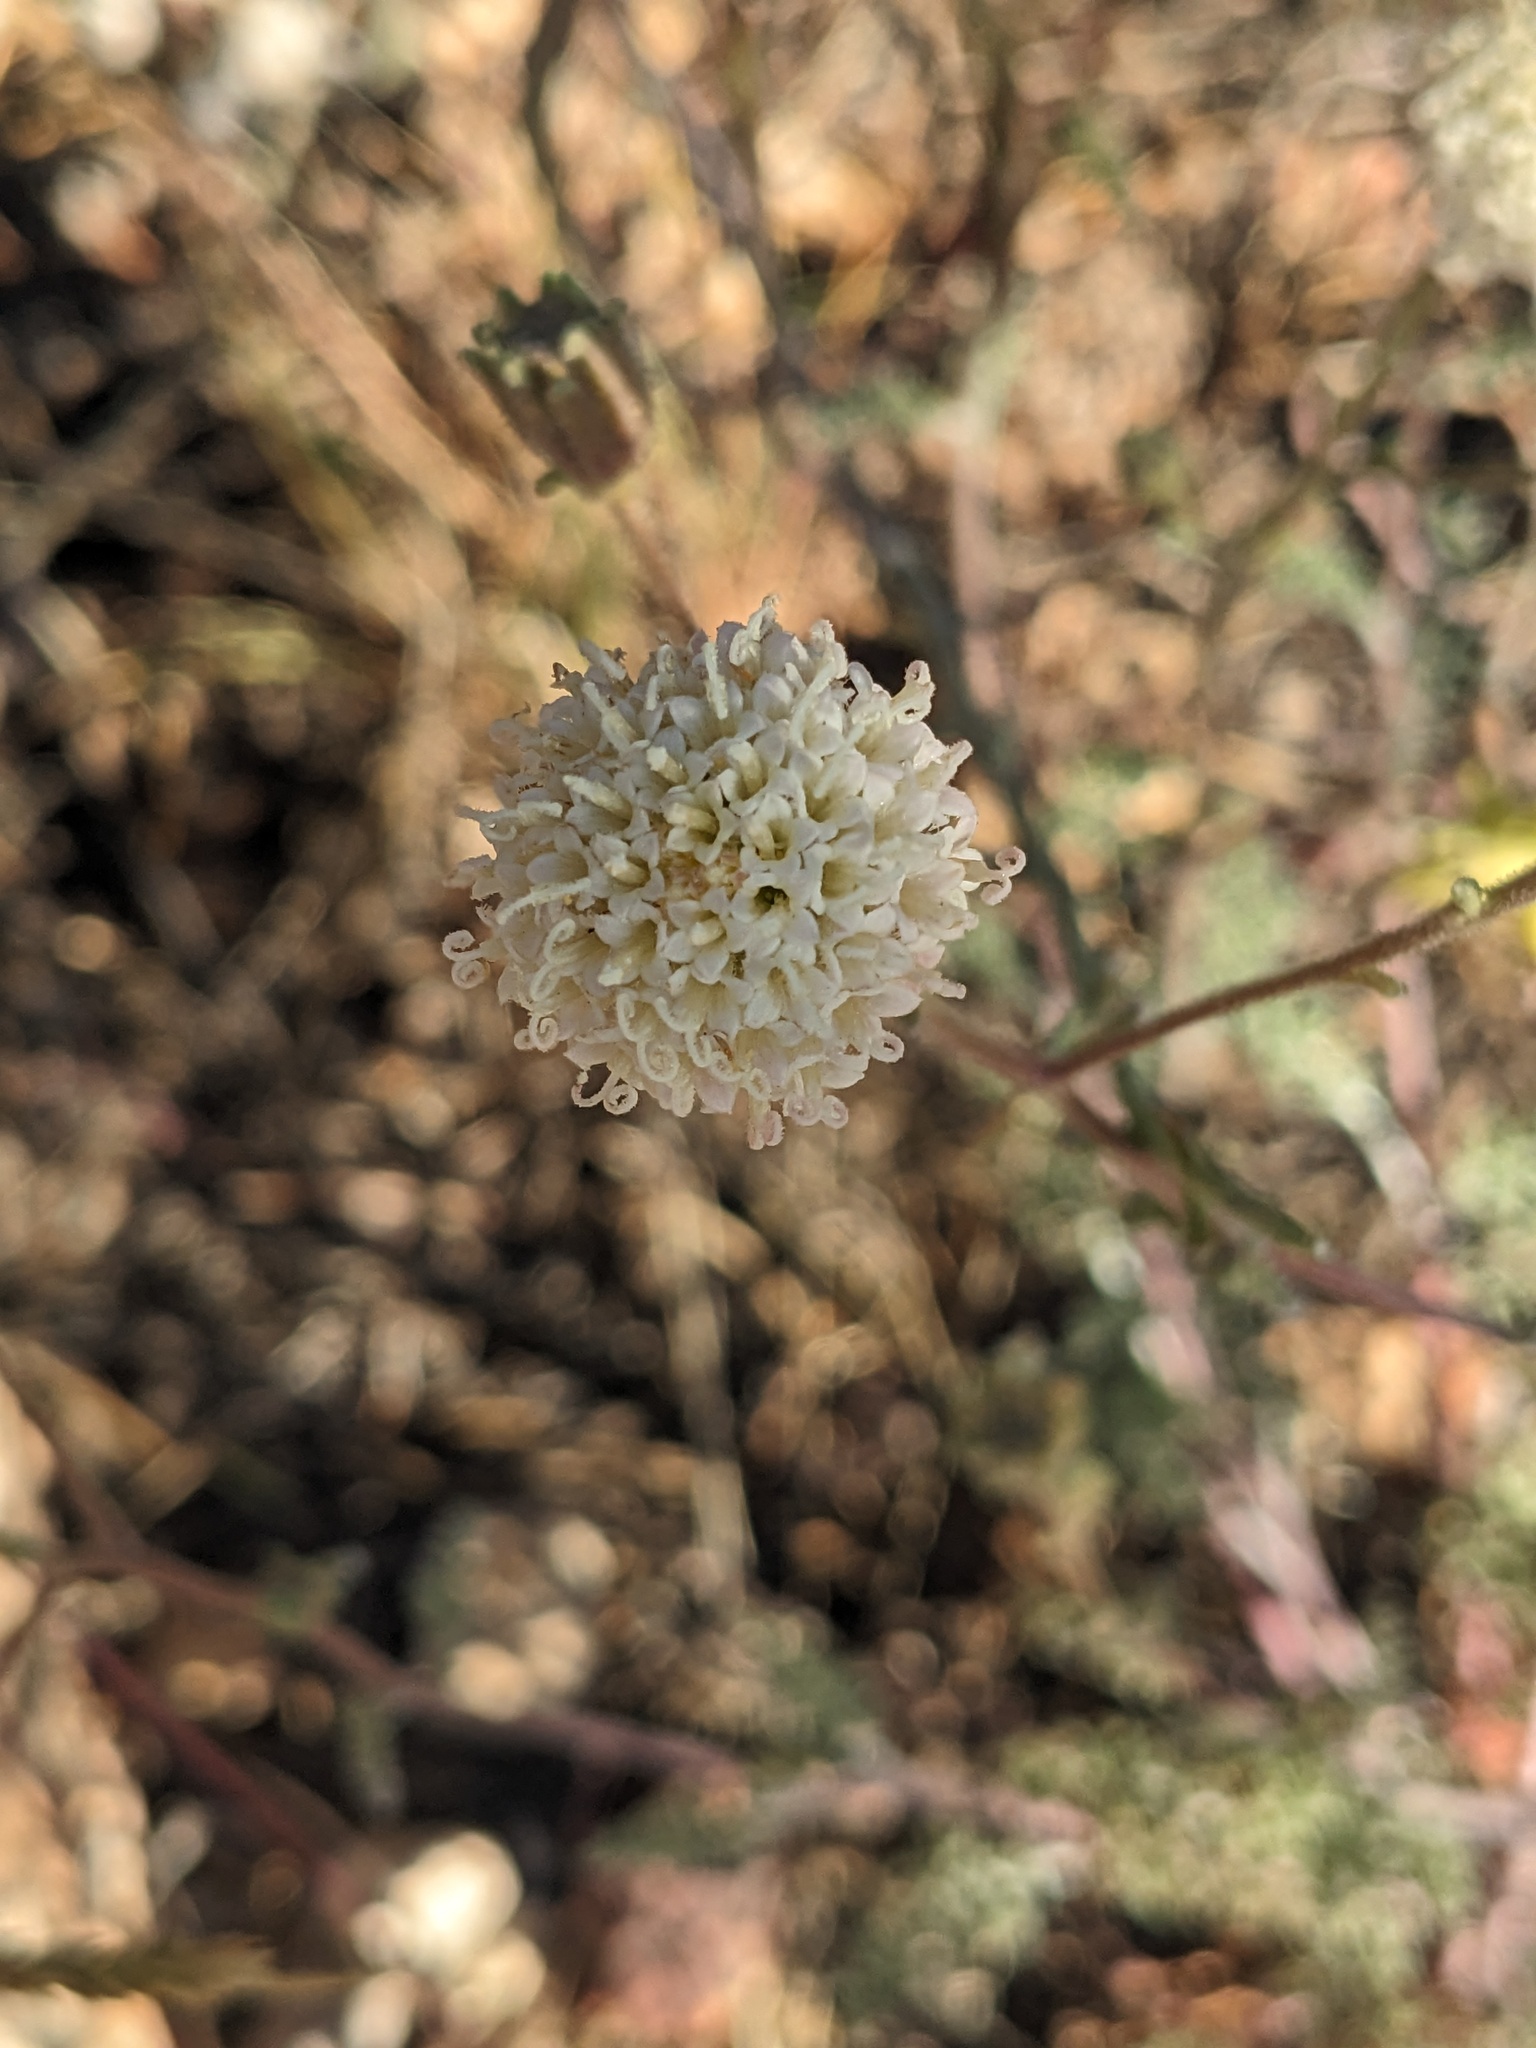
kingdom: Plantae
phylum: Tracheophyta
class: Magnoliopsida
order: Asterales
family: Asteraceae
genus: Chaenactis
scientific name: Chaenactis douglasii
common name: Hoary pincushion
